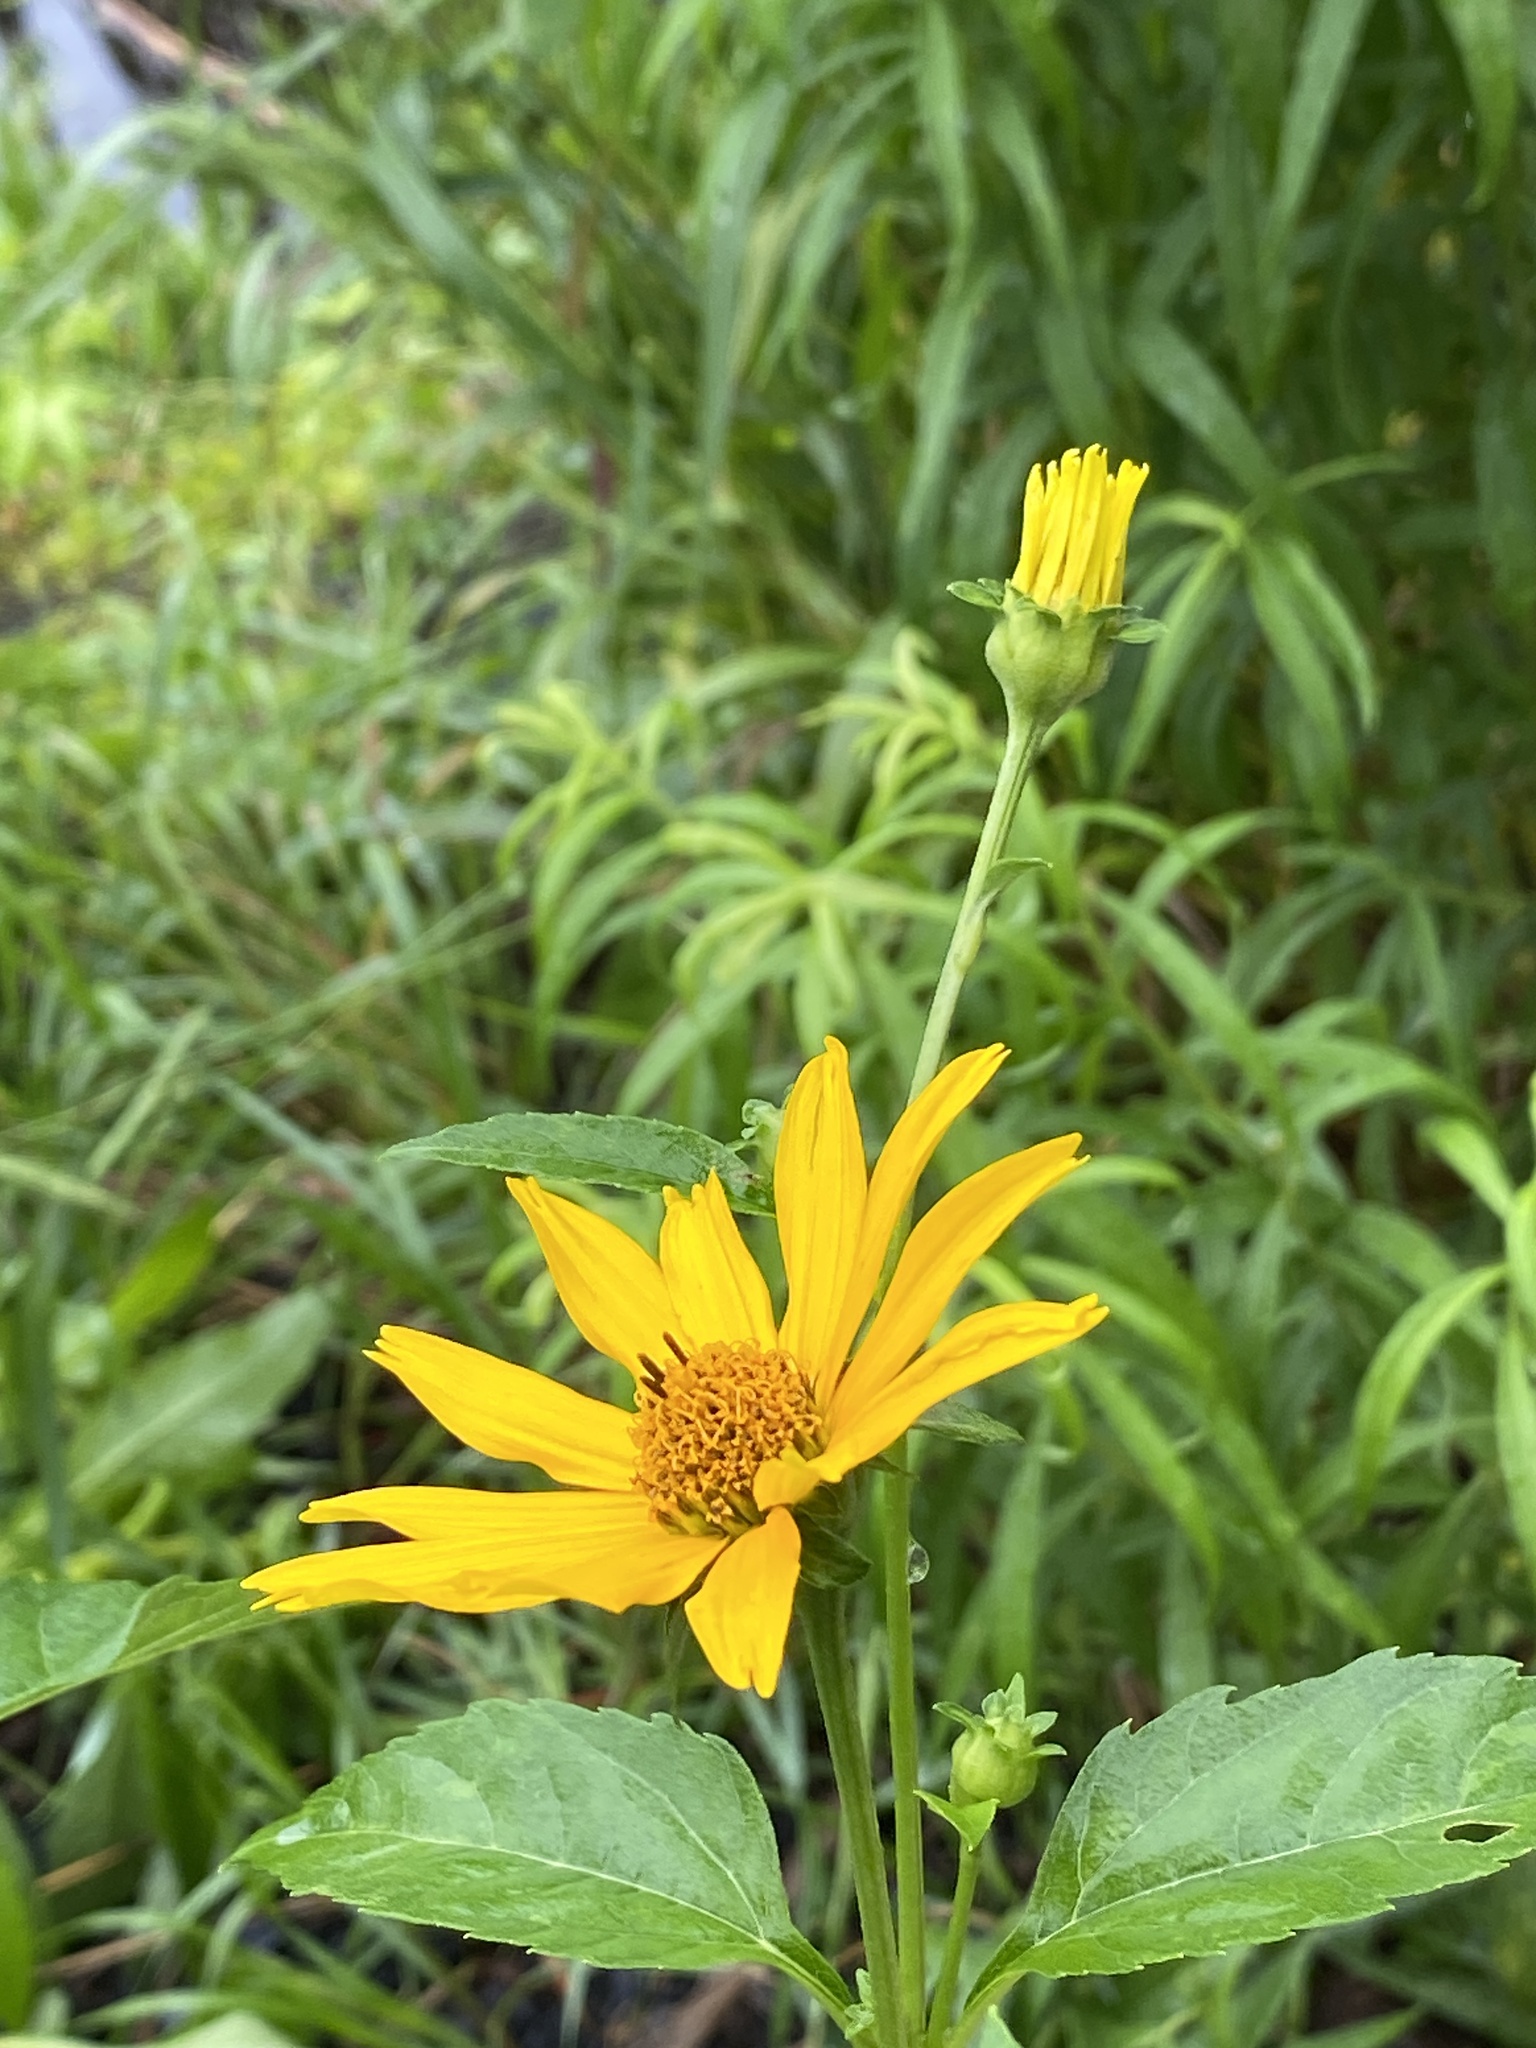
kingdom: Plantae
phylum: Tracheophyta
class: Magnoliopsida
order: Asterales
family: Asteraceae
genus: Heliopsis
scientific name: Heliopsis helianthoides
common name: False sunflower
